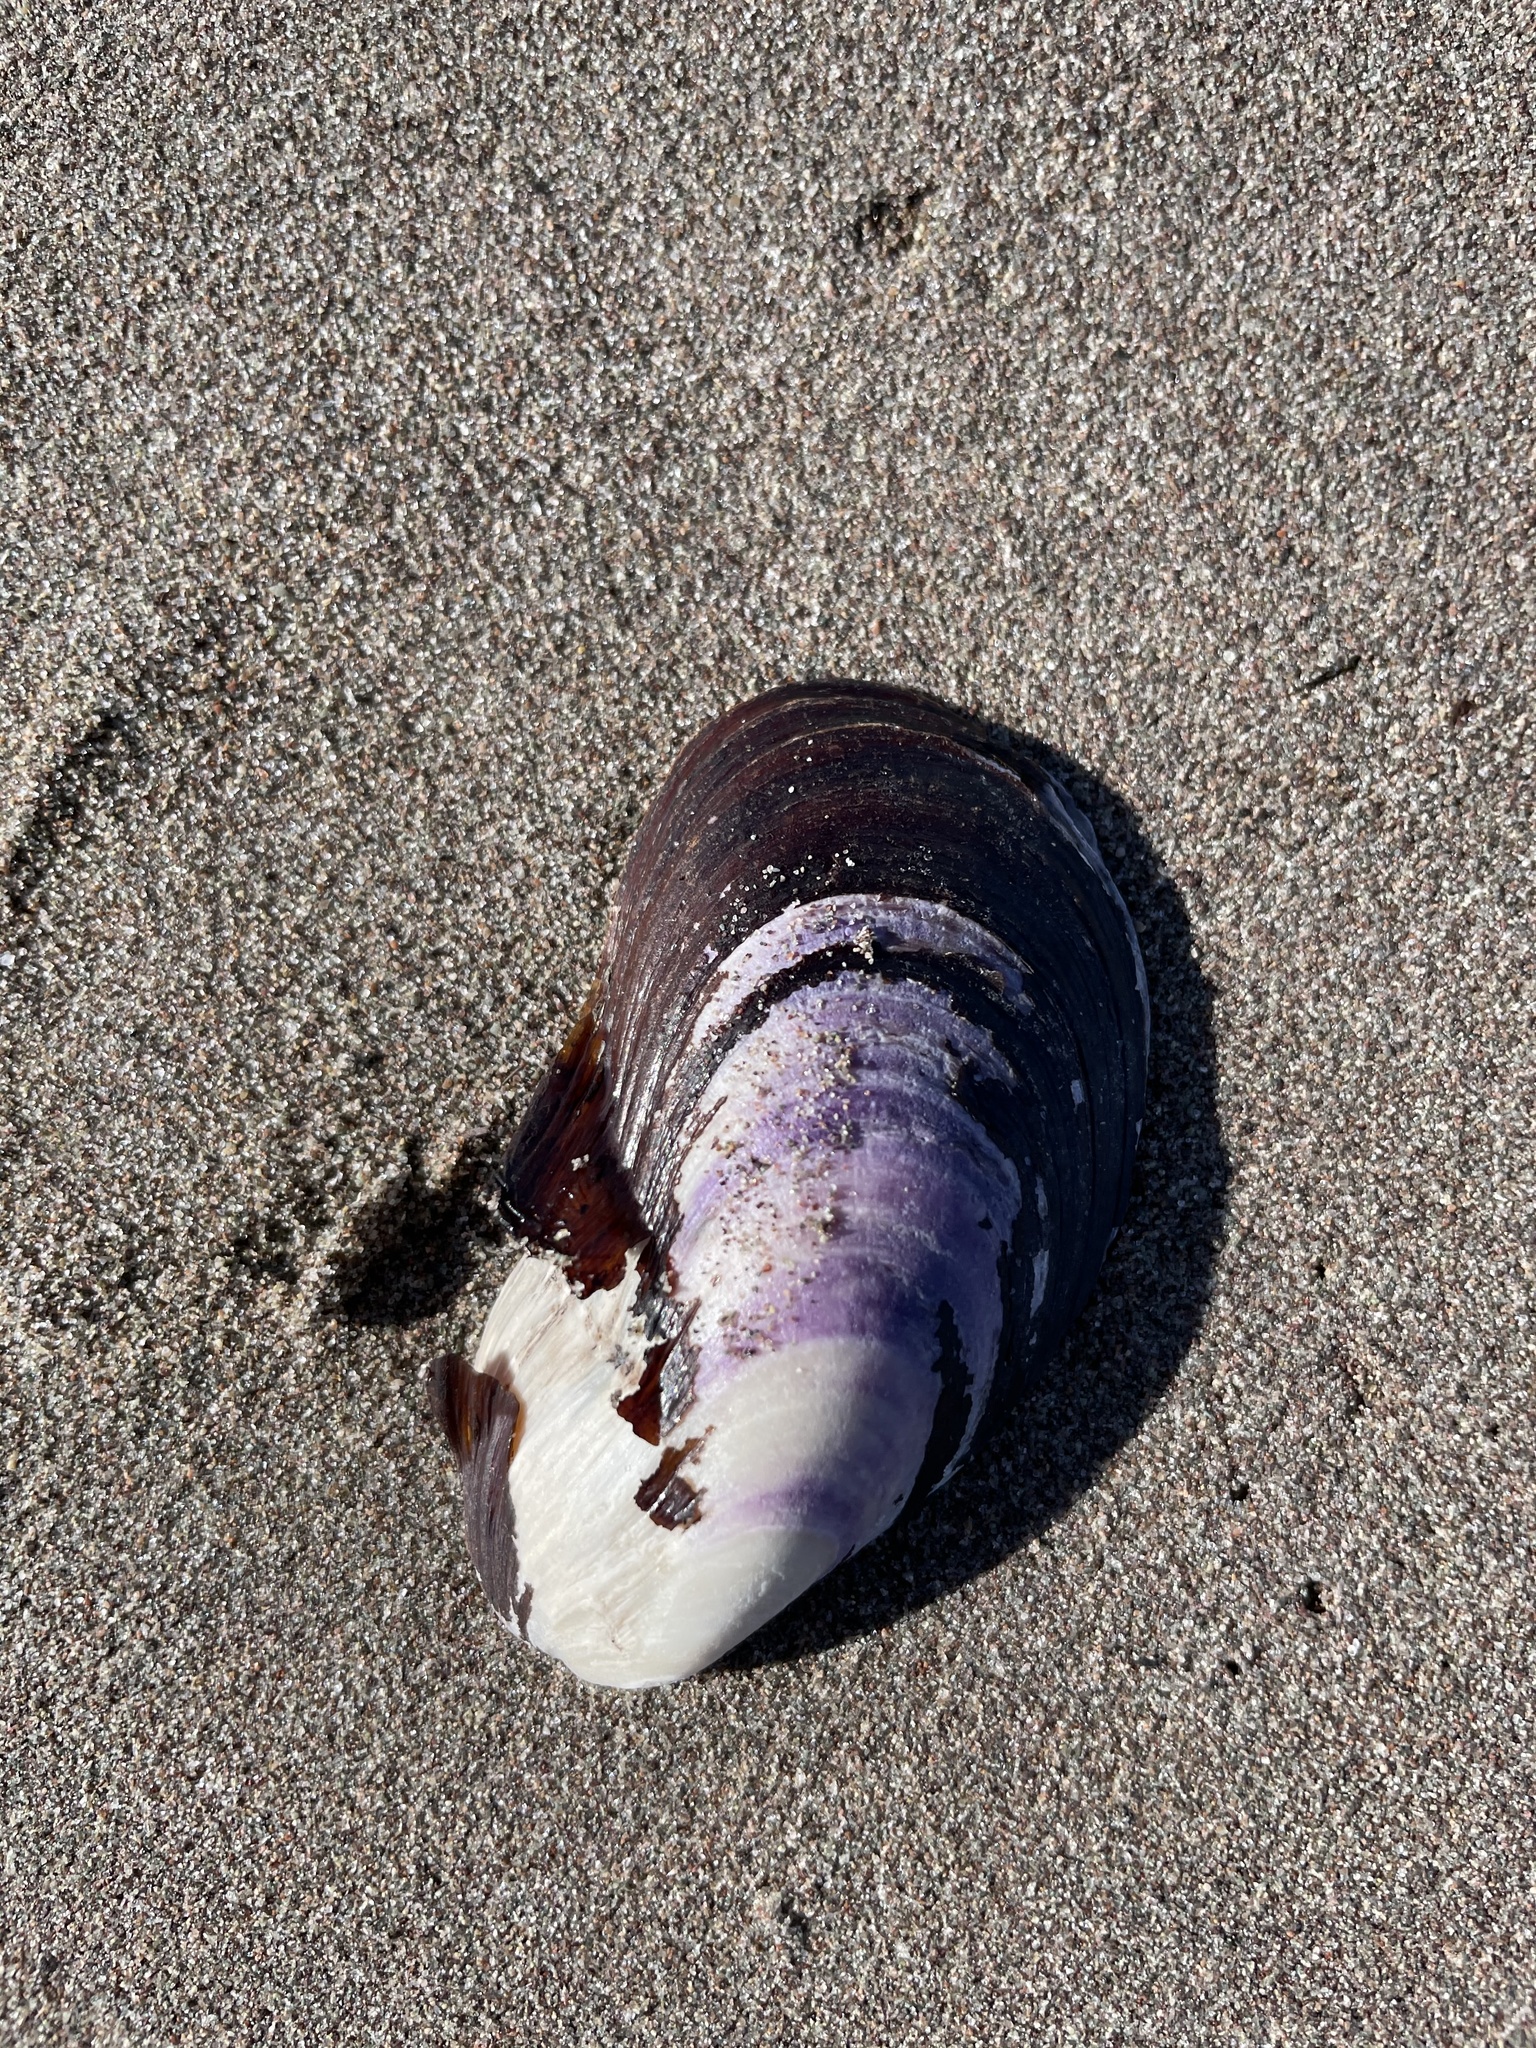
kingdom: Animalia
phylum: Mollusca
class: Bivalvia
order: Mytilida
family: Mytilidae
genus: Modiolus
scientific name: Modiolus modiolus
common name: Horse-mussel
